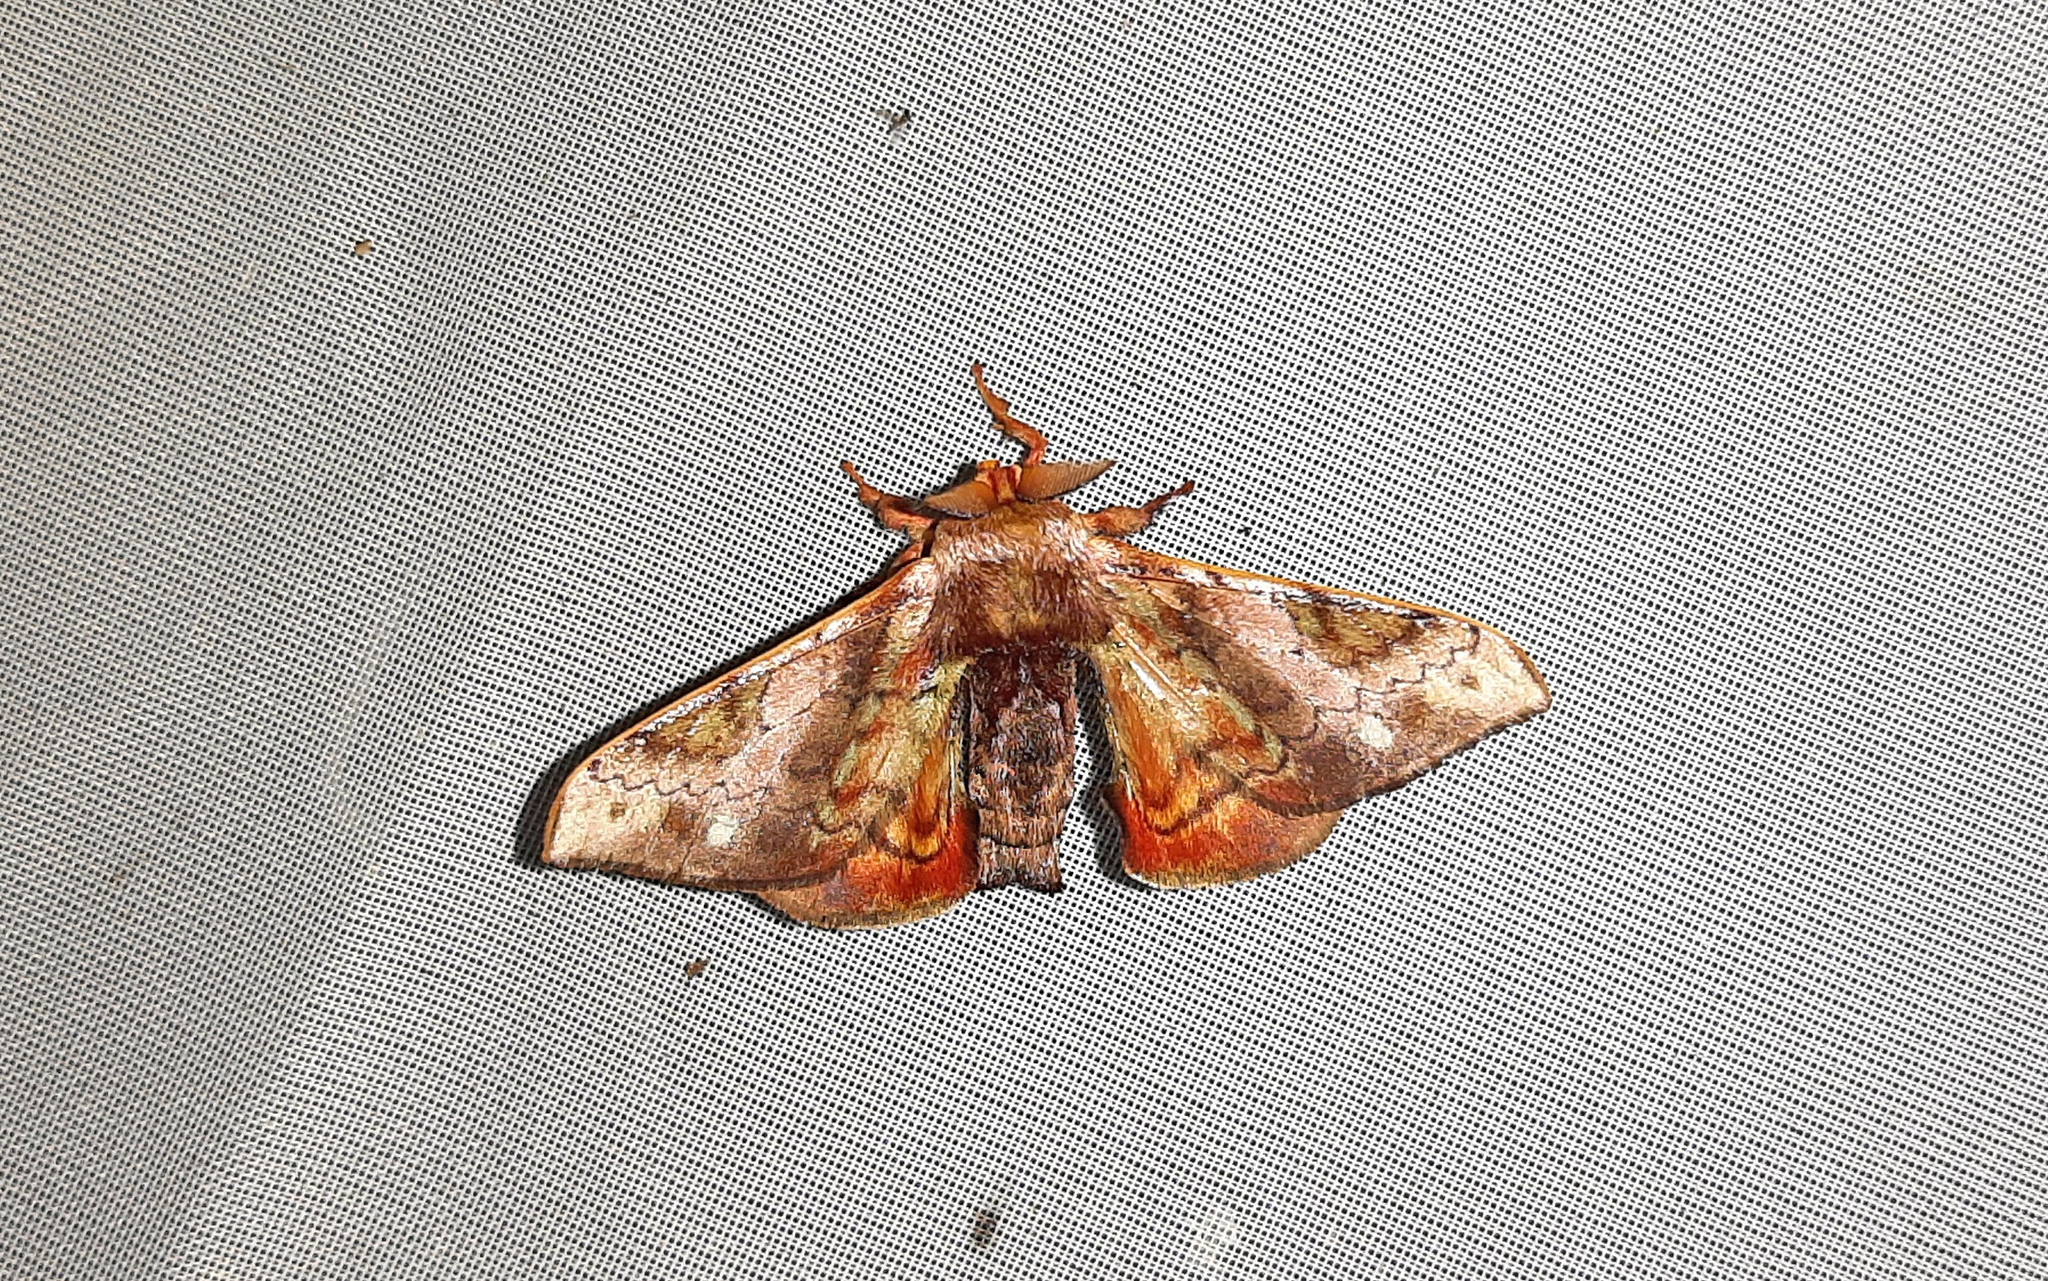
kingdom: Animalia
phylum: Arthropoda
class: Insecta
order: Lepidoptera
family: Bombycidae
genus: Epia
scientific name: Epia vulnerata
